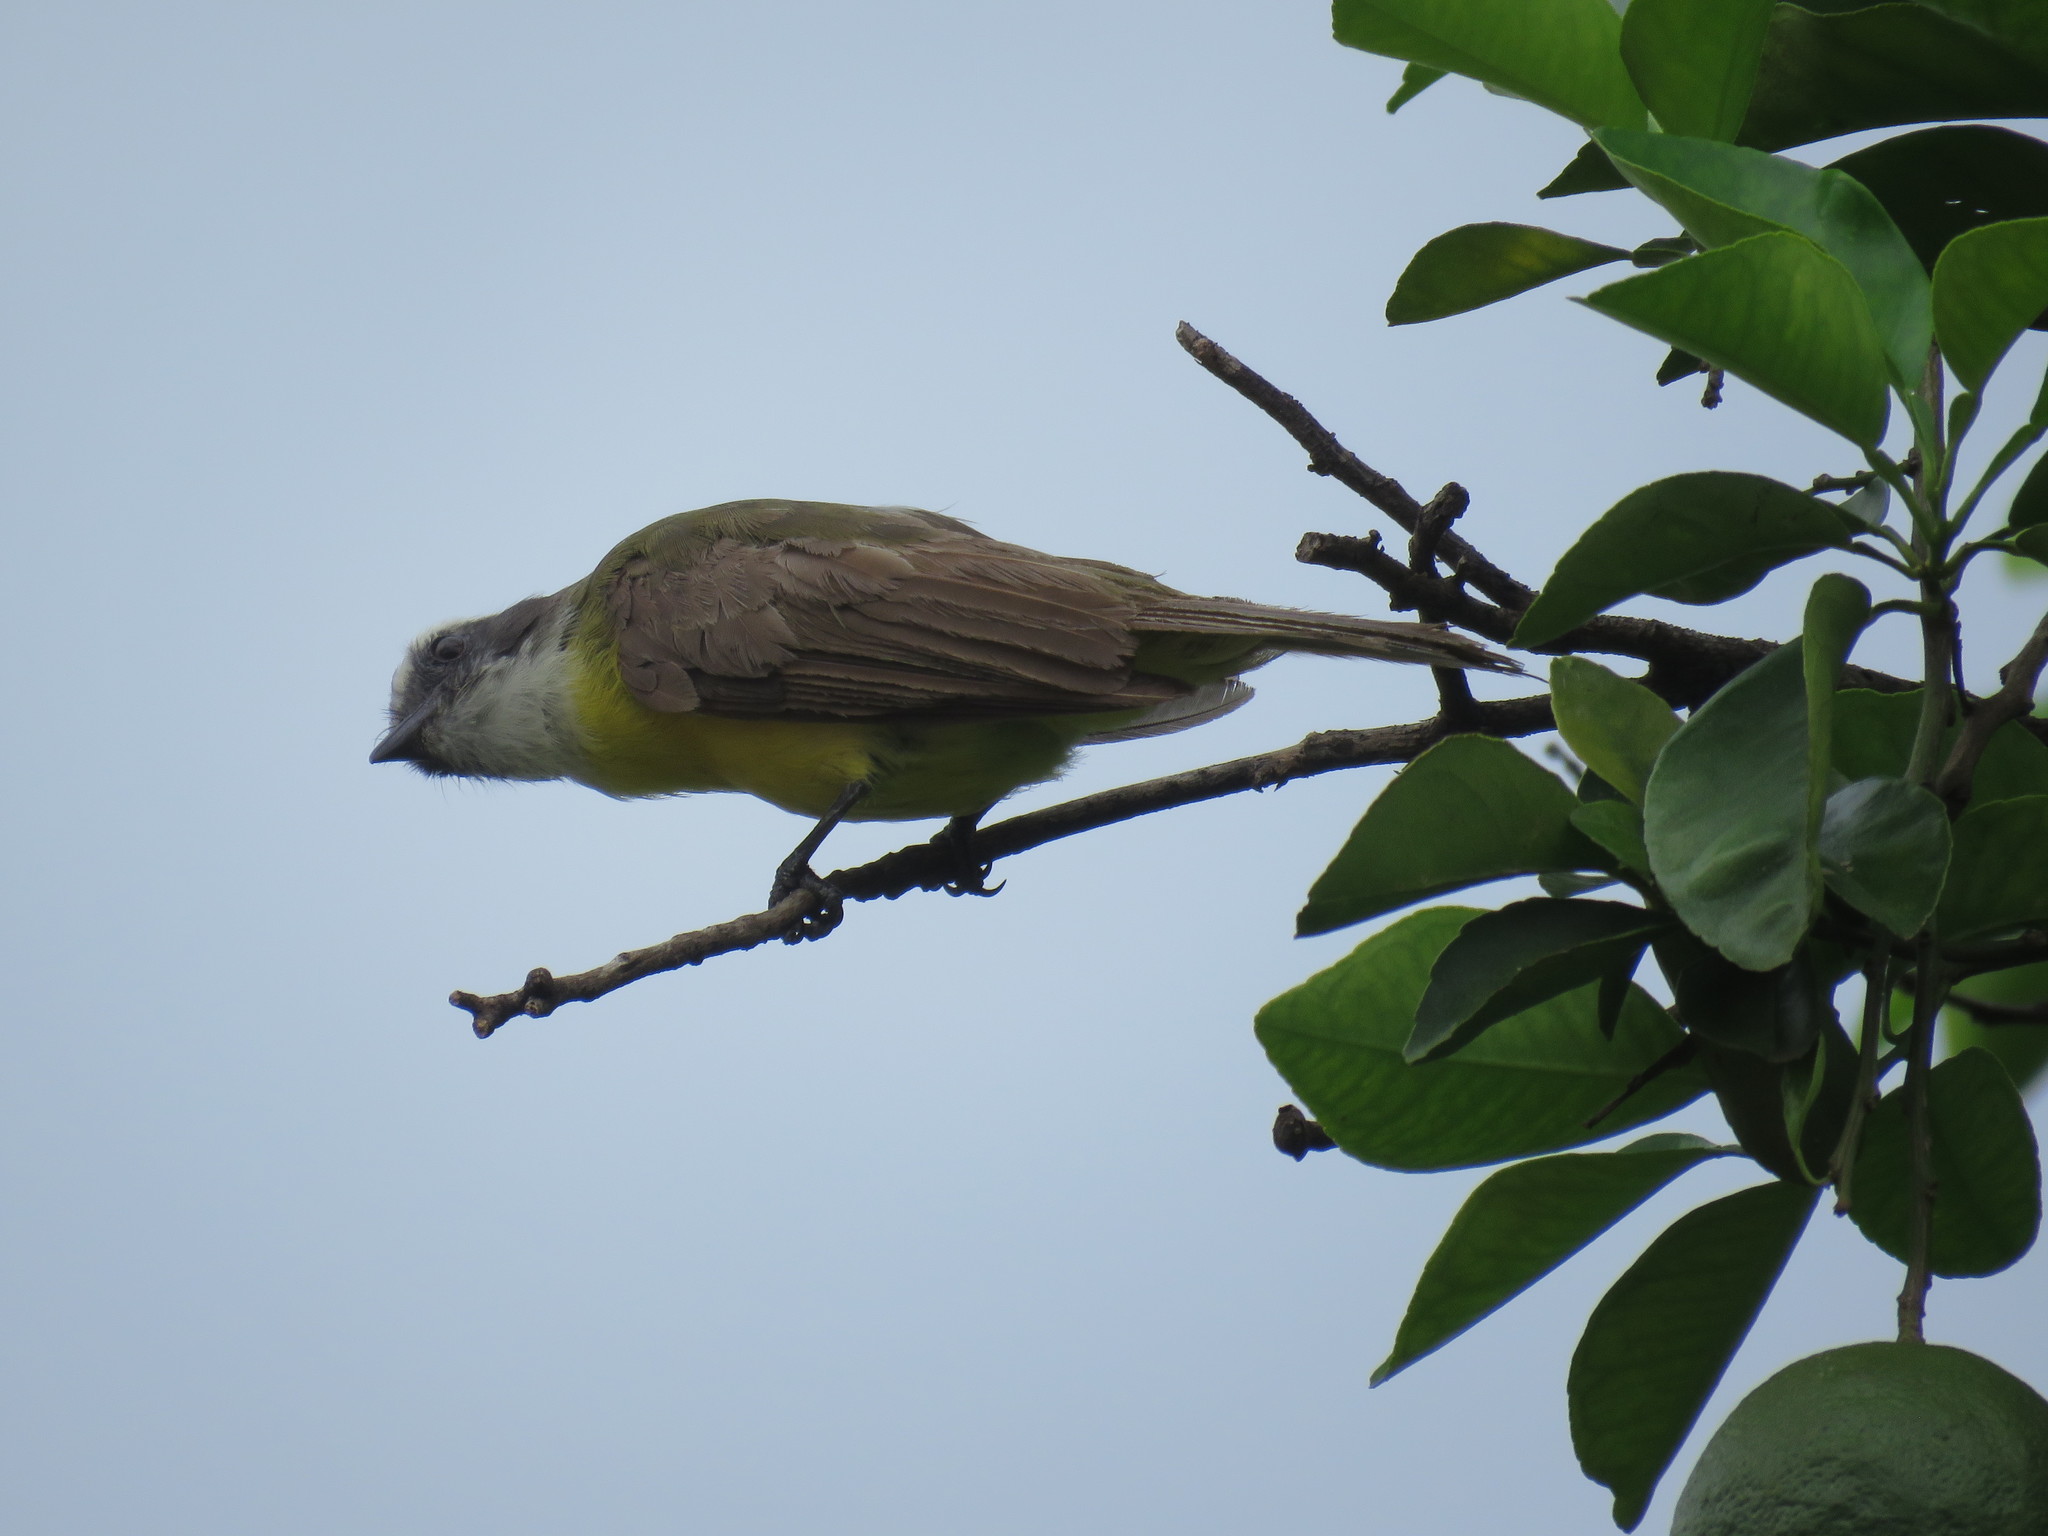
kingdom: Animalia
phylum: Chordata
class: Aves
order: Passeriformes
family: Tyrannidae
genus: Myiozetetes
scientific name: Myiozetetes similis
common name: Social flycatcher
